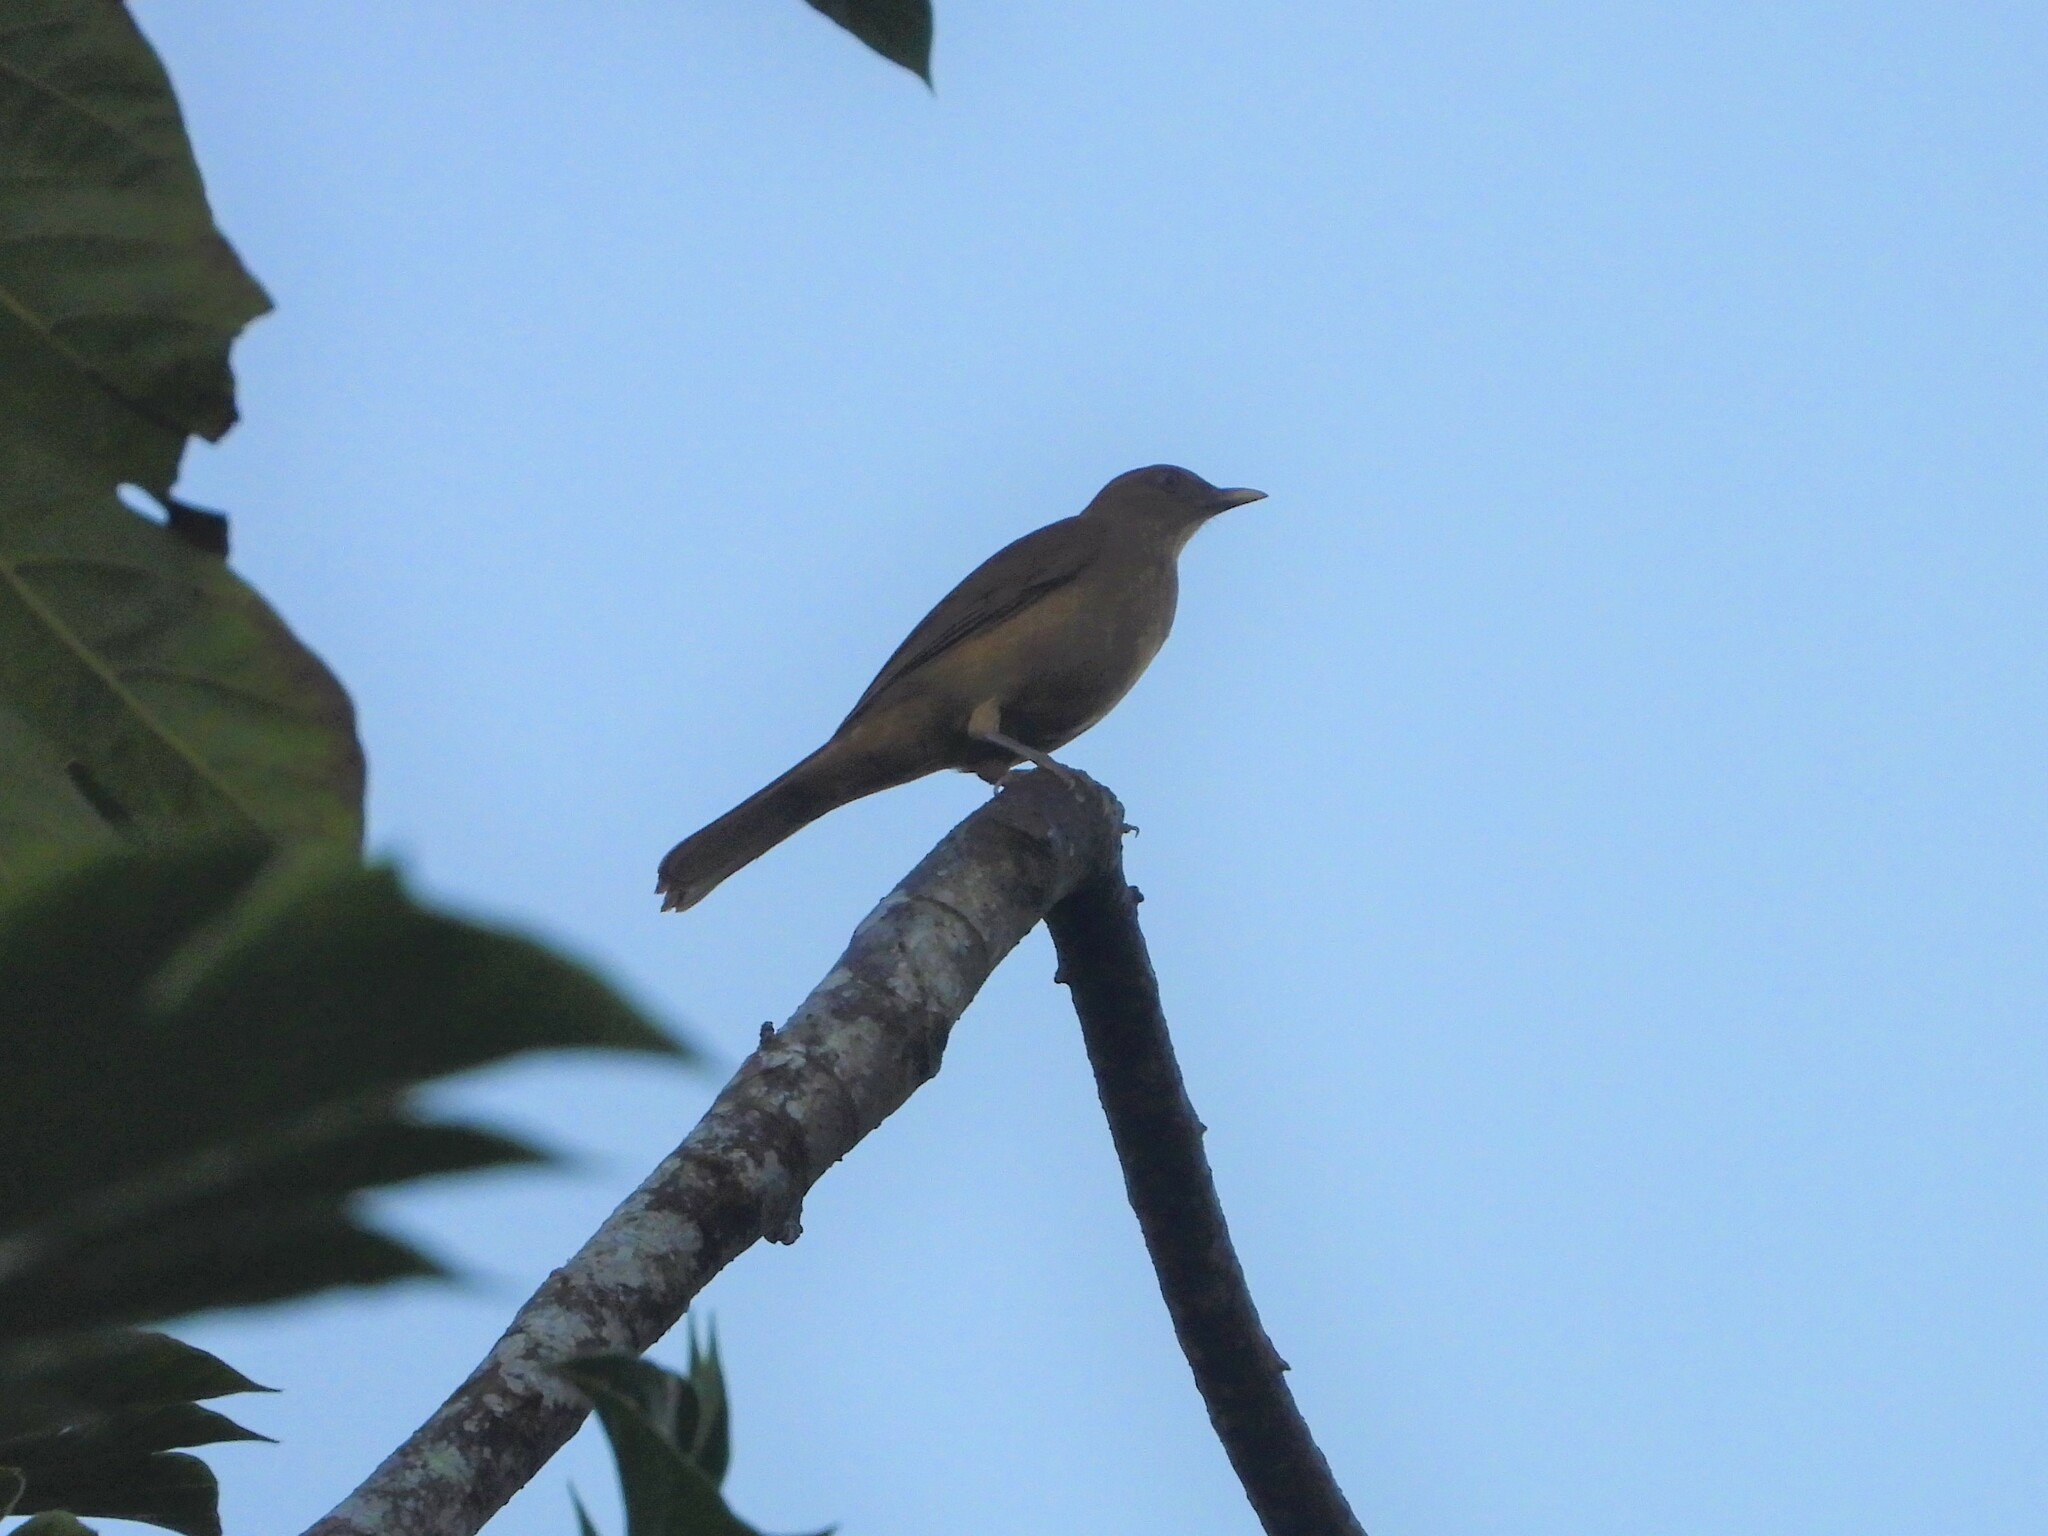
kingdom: Animalia
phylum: Chordata
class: Aves
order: Passeriformes
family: Turdidae
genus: Turdus
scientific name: Turdus grayi
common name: Clay-colored thrush
